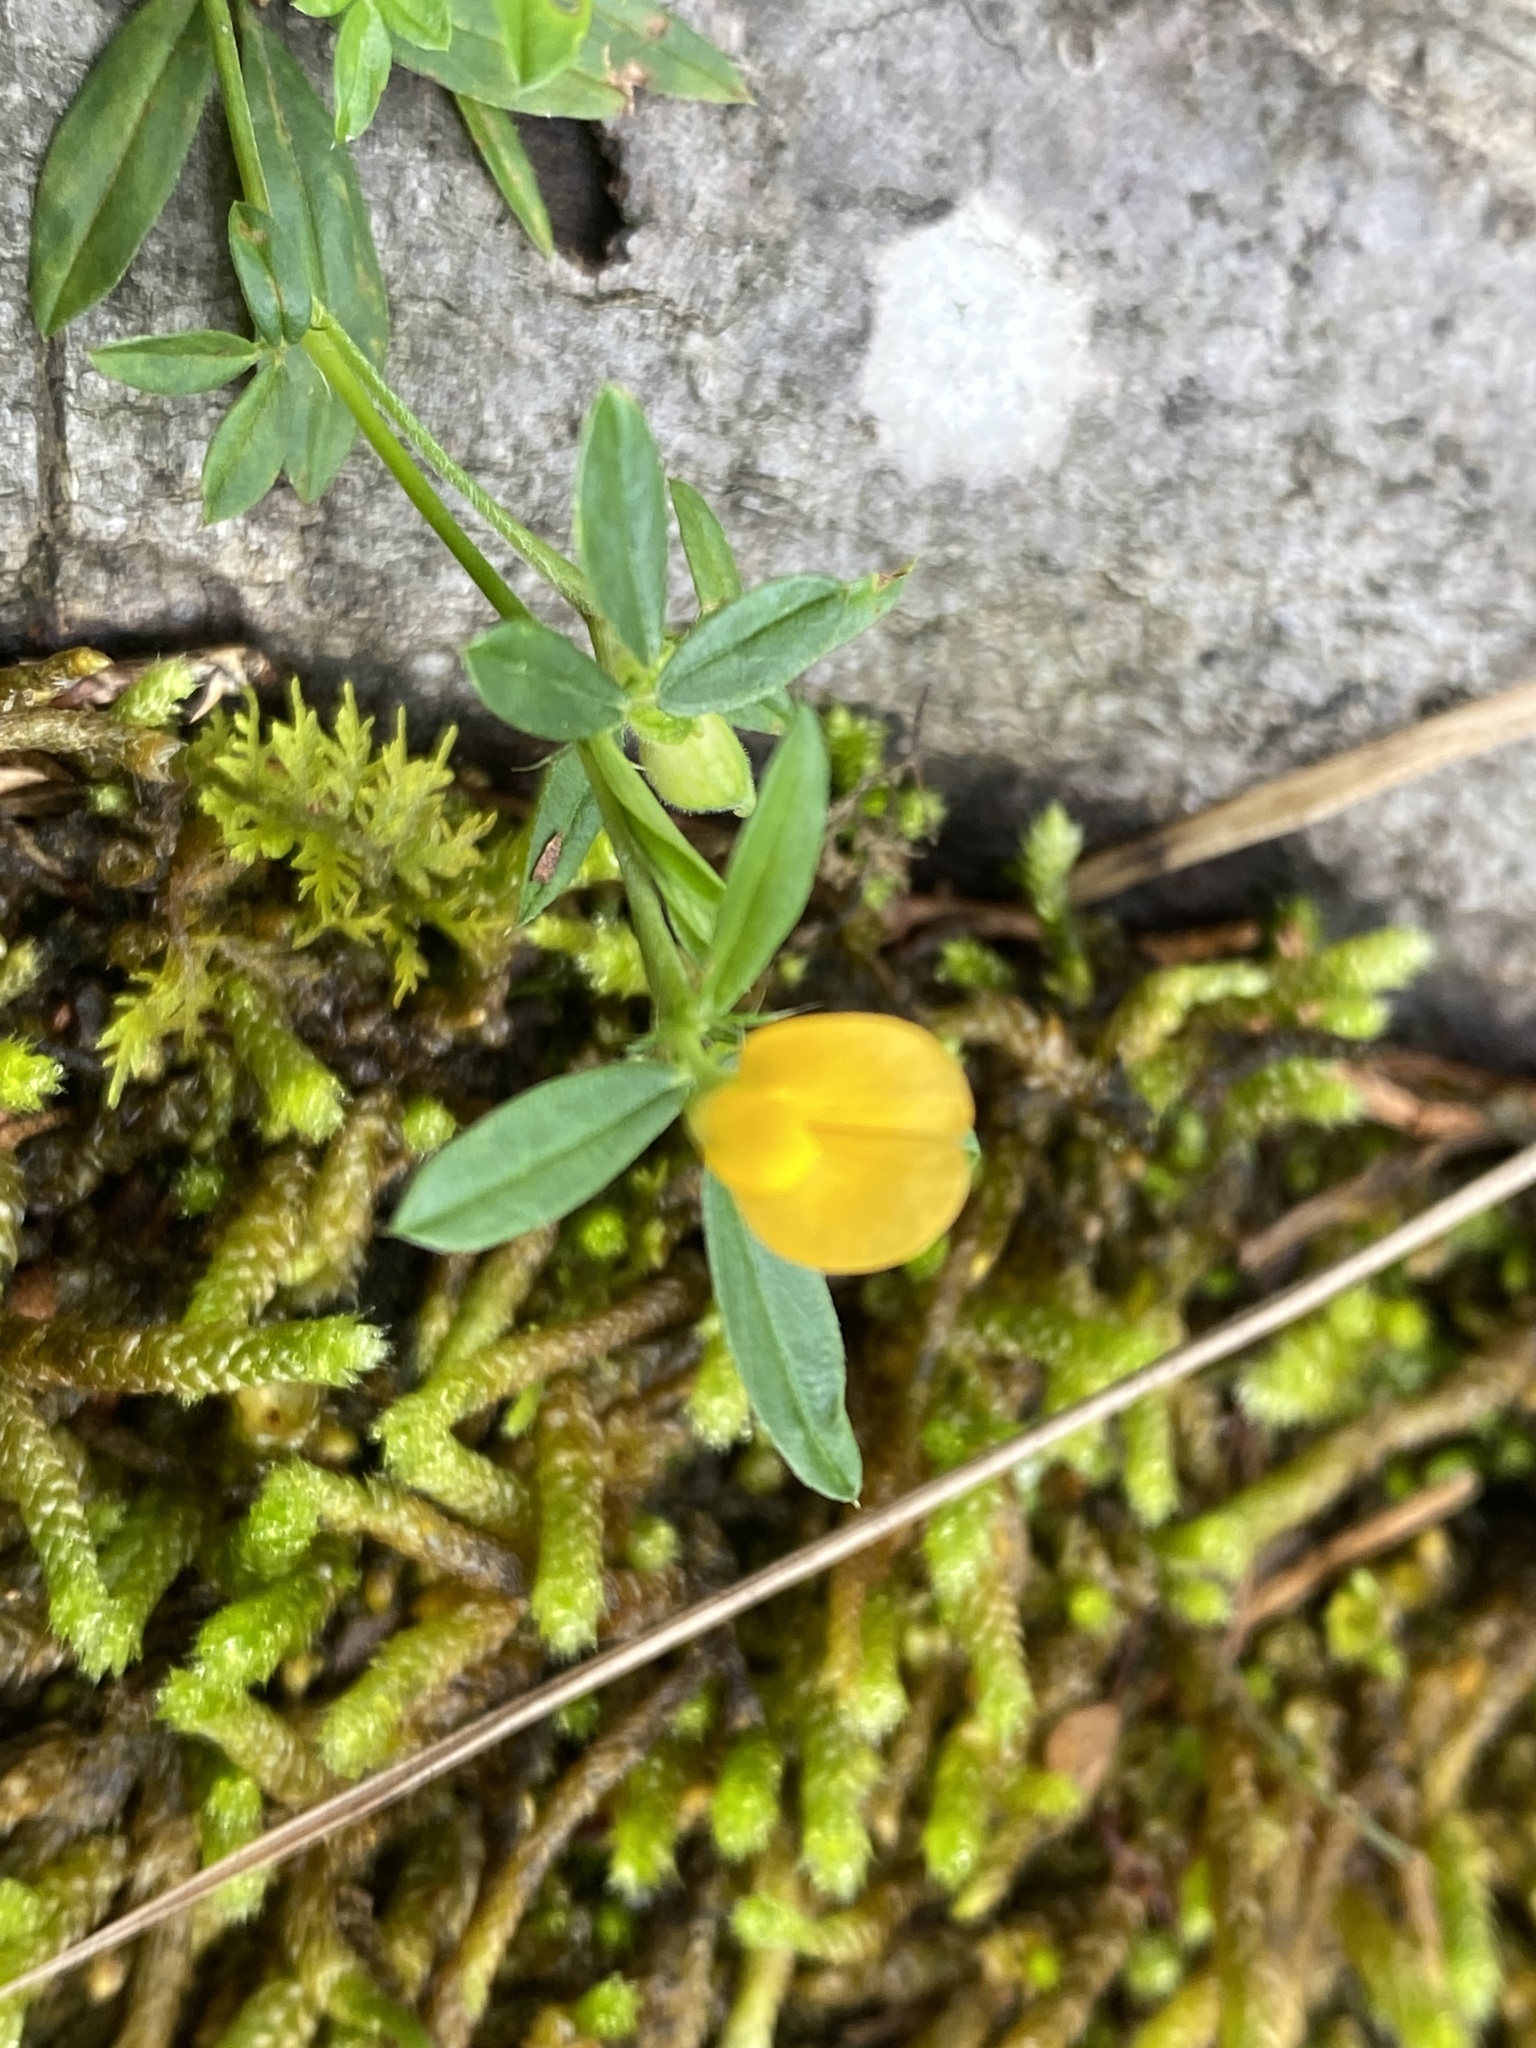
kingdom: Plantae
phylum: Tracheophyta
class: Magnoliopsida
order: Fabales
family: Fabaceae
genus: Stylosanthes
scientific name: Stylosanthes biflora
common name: Two-flower pencil-flower
